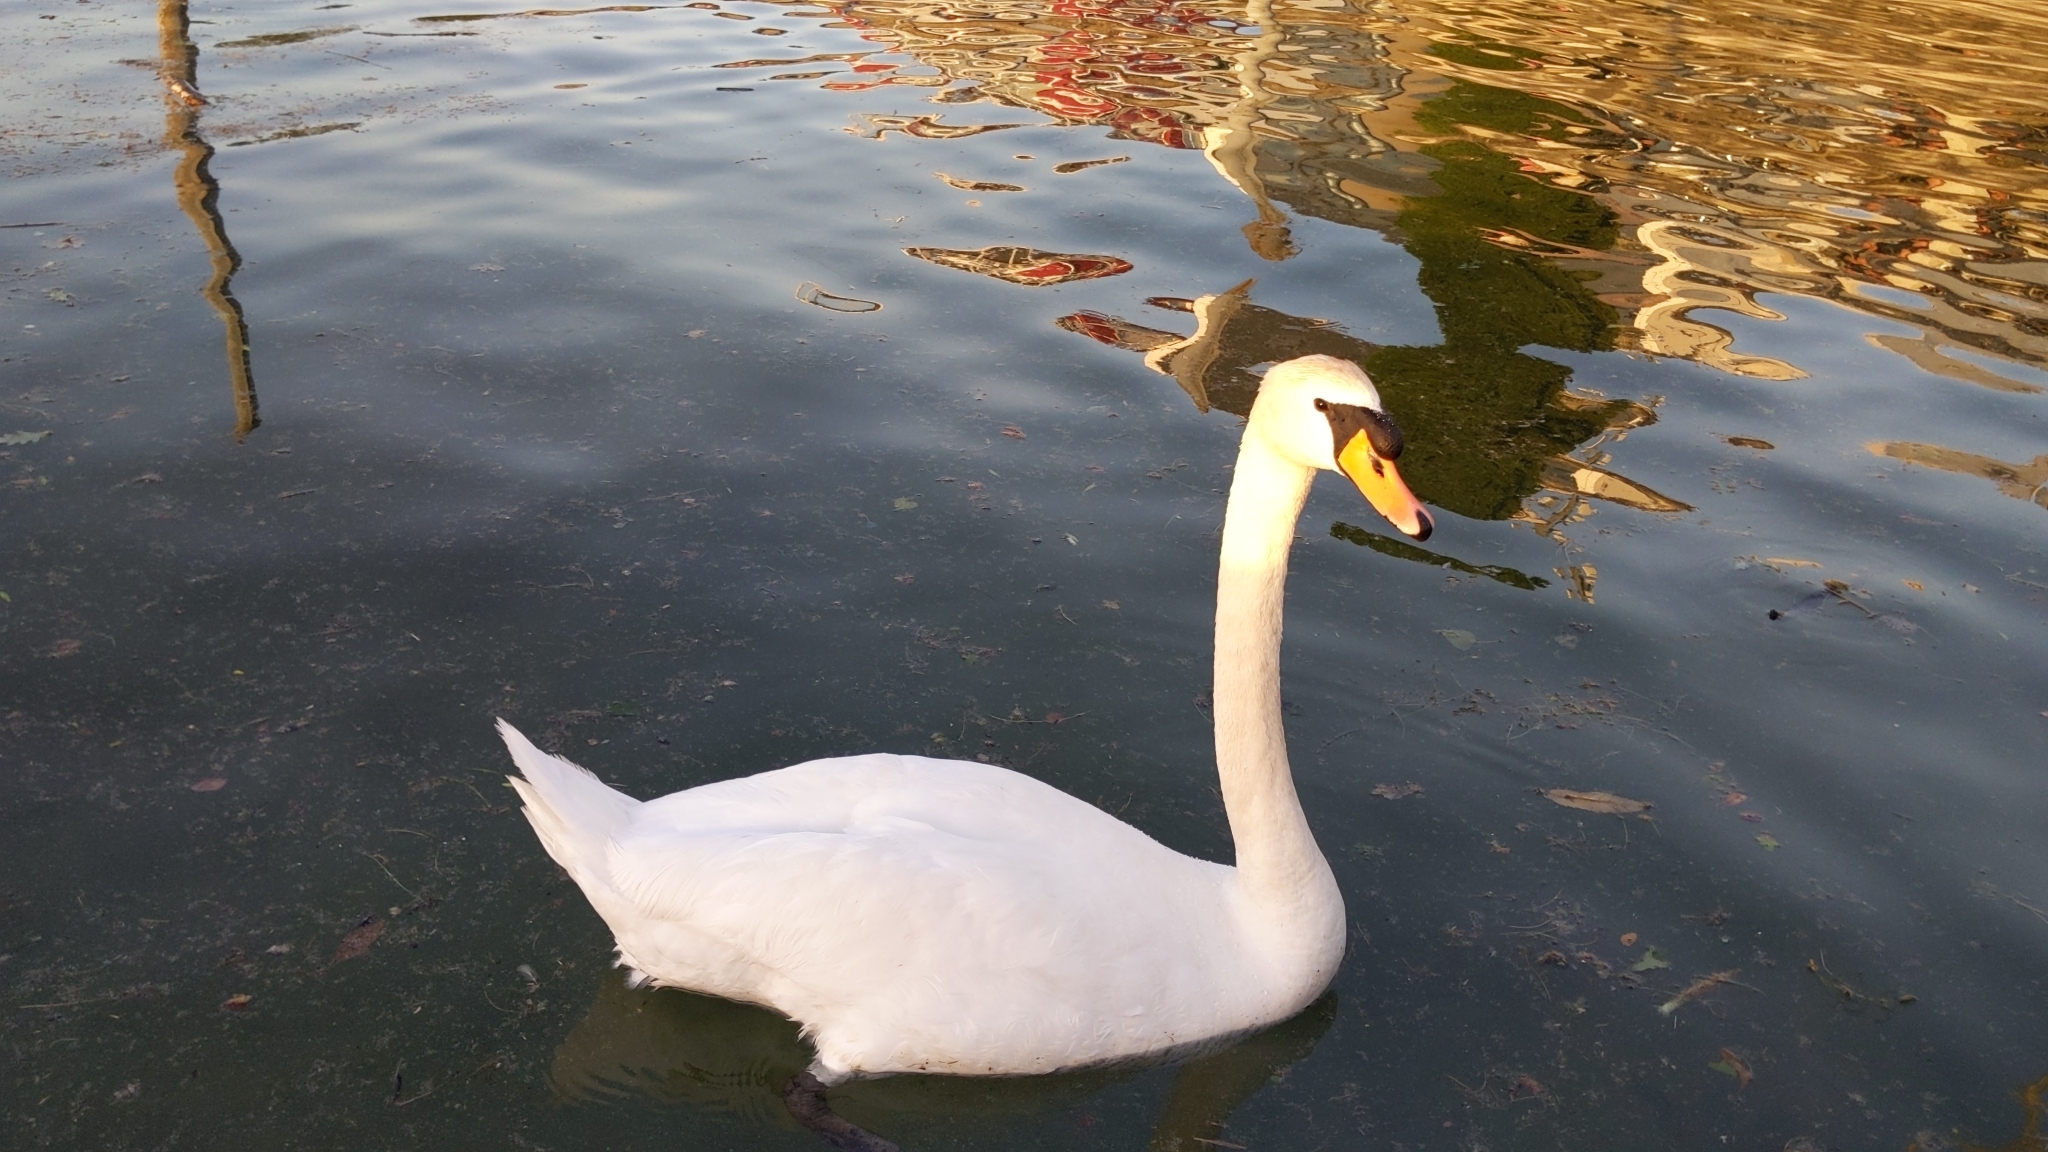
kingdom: Animalia
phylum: Chordata
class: Aves
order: Anseriformes
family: Anatidae
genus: Cygnus
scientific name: Cygnus olor
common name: Mute swan
